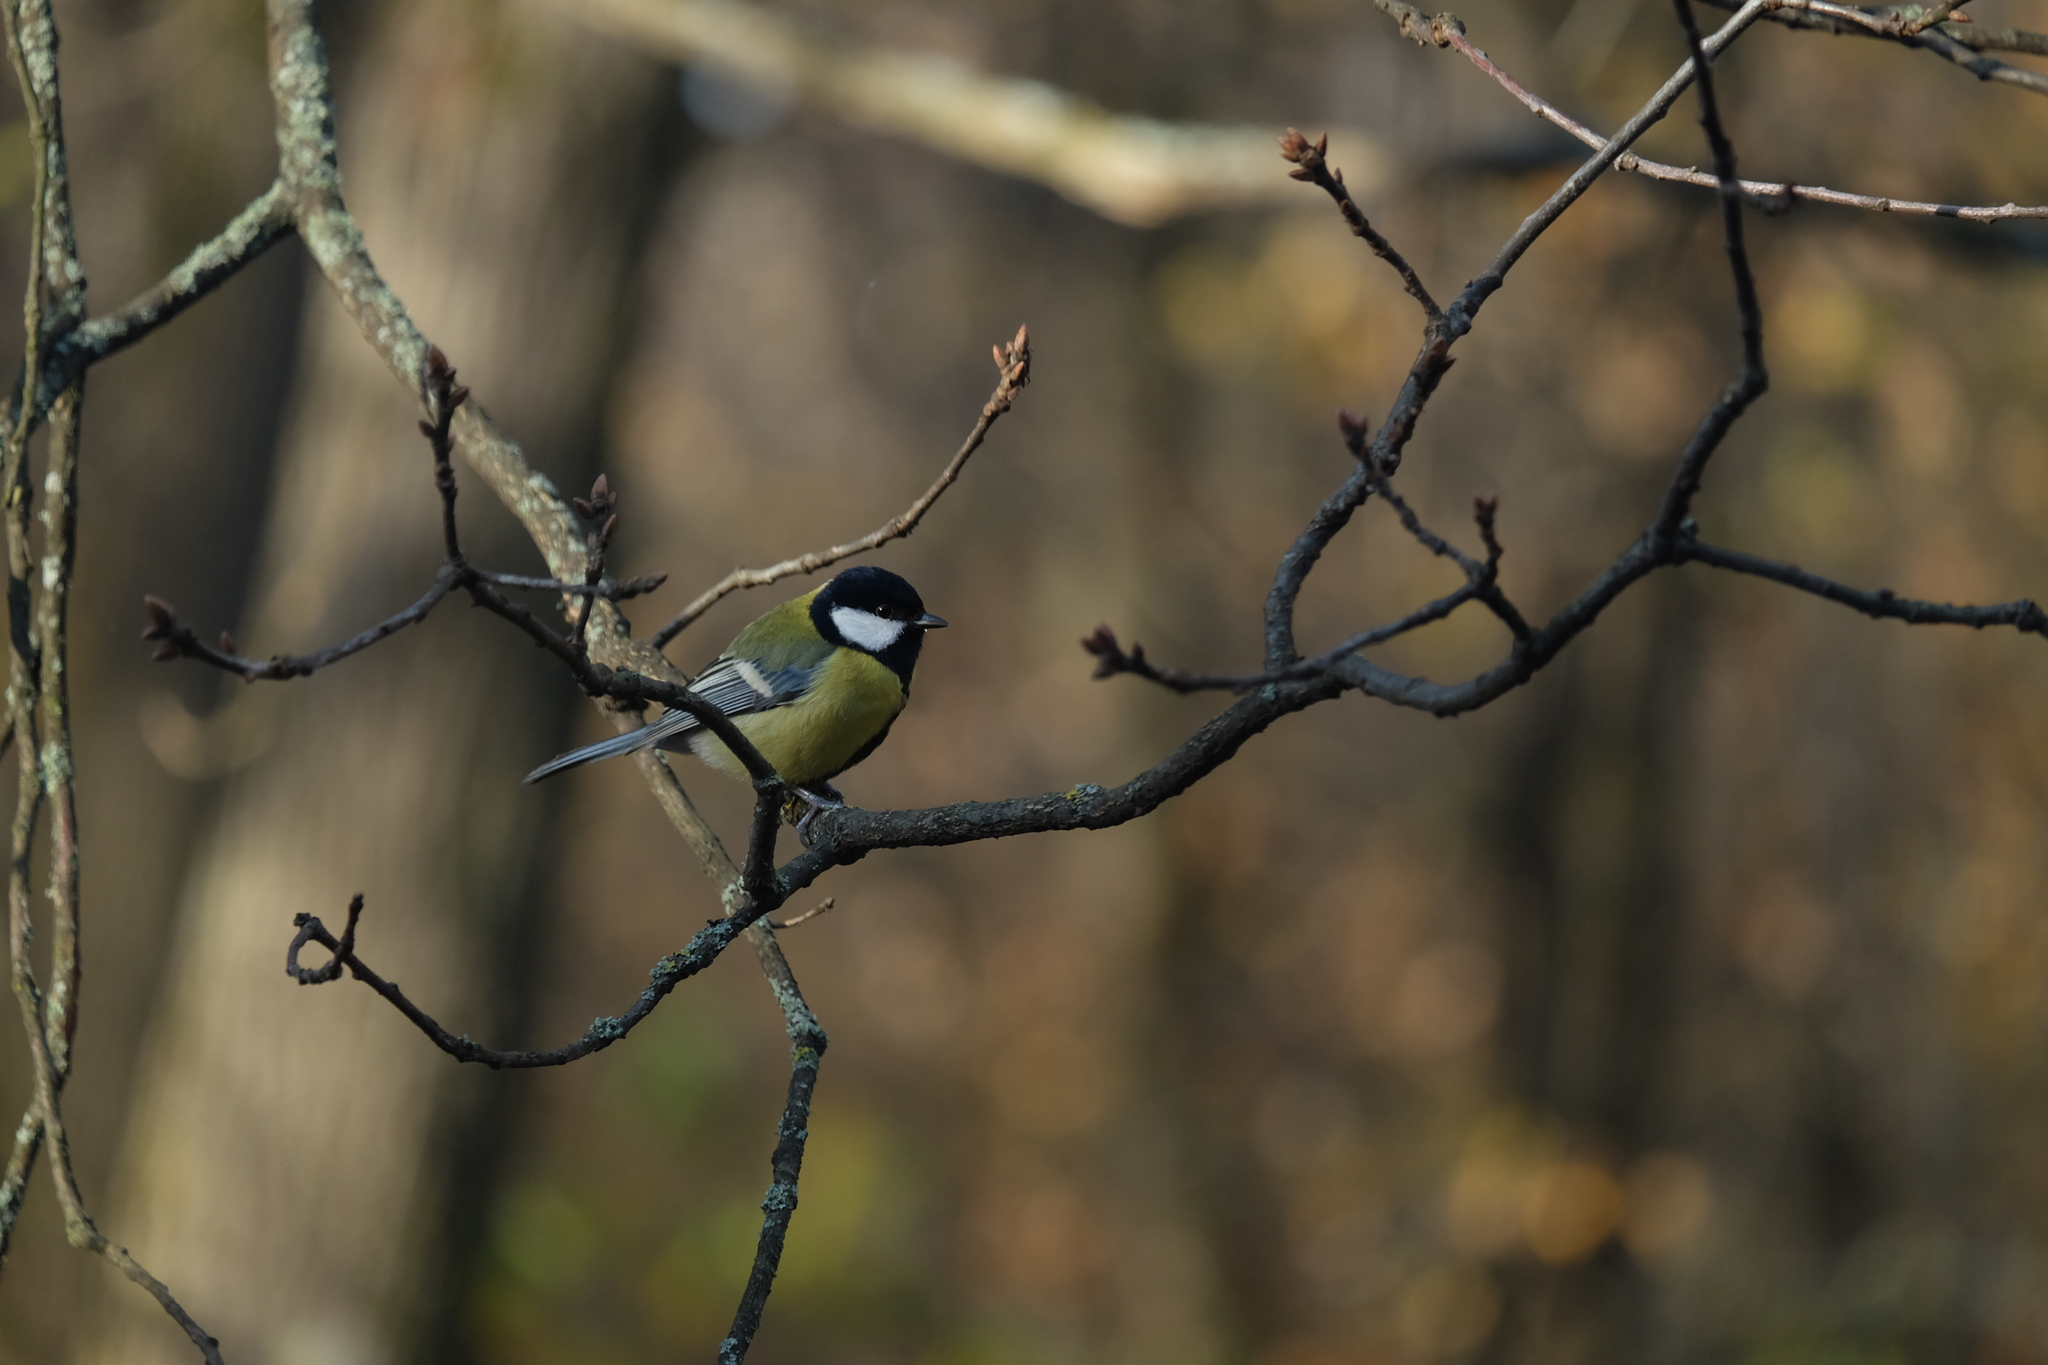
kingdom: Animalia
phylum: Chordata
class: Aves
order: Passeriformes
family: Paridae
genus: Parus
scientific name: Parus major
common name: Great tit
